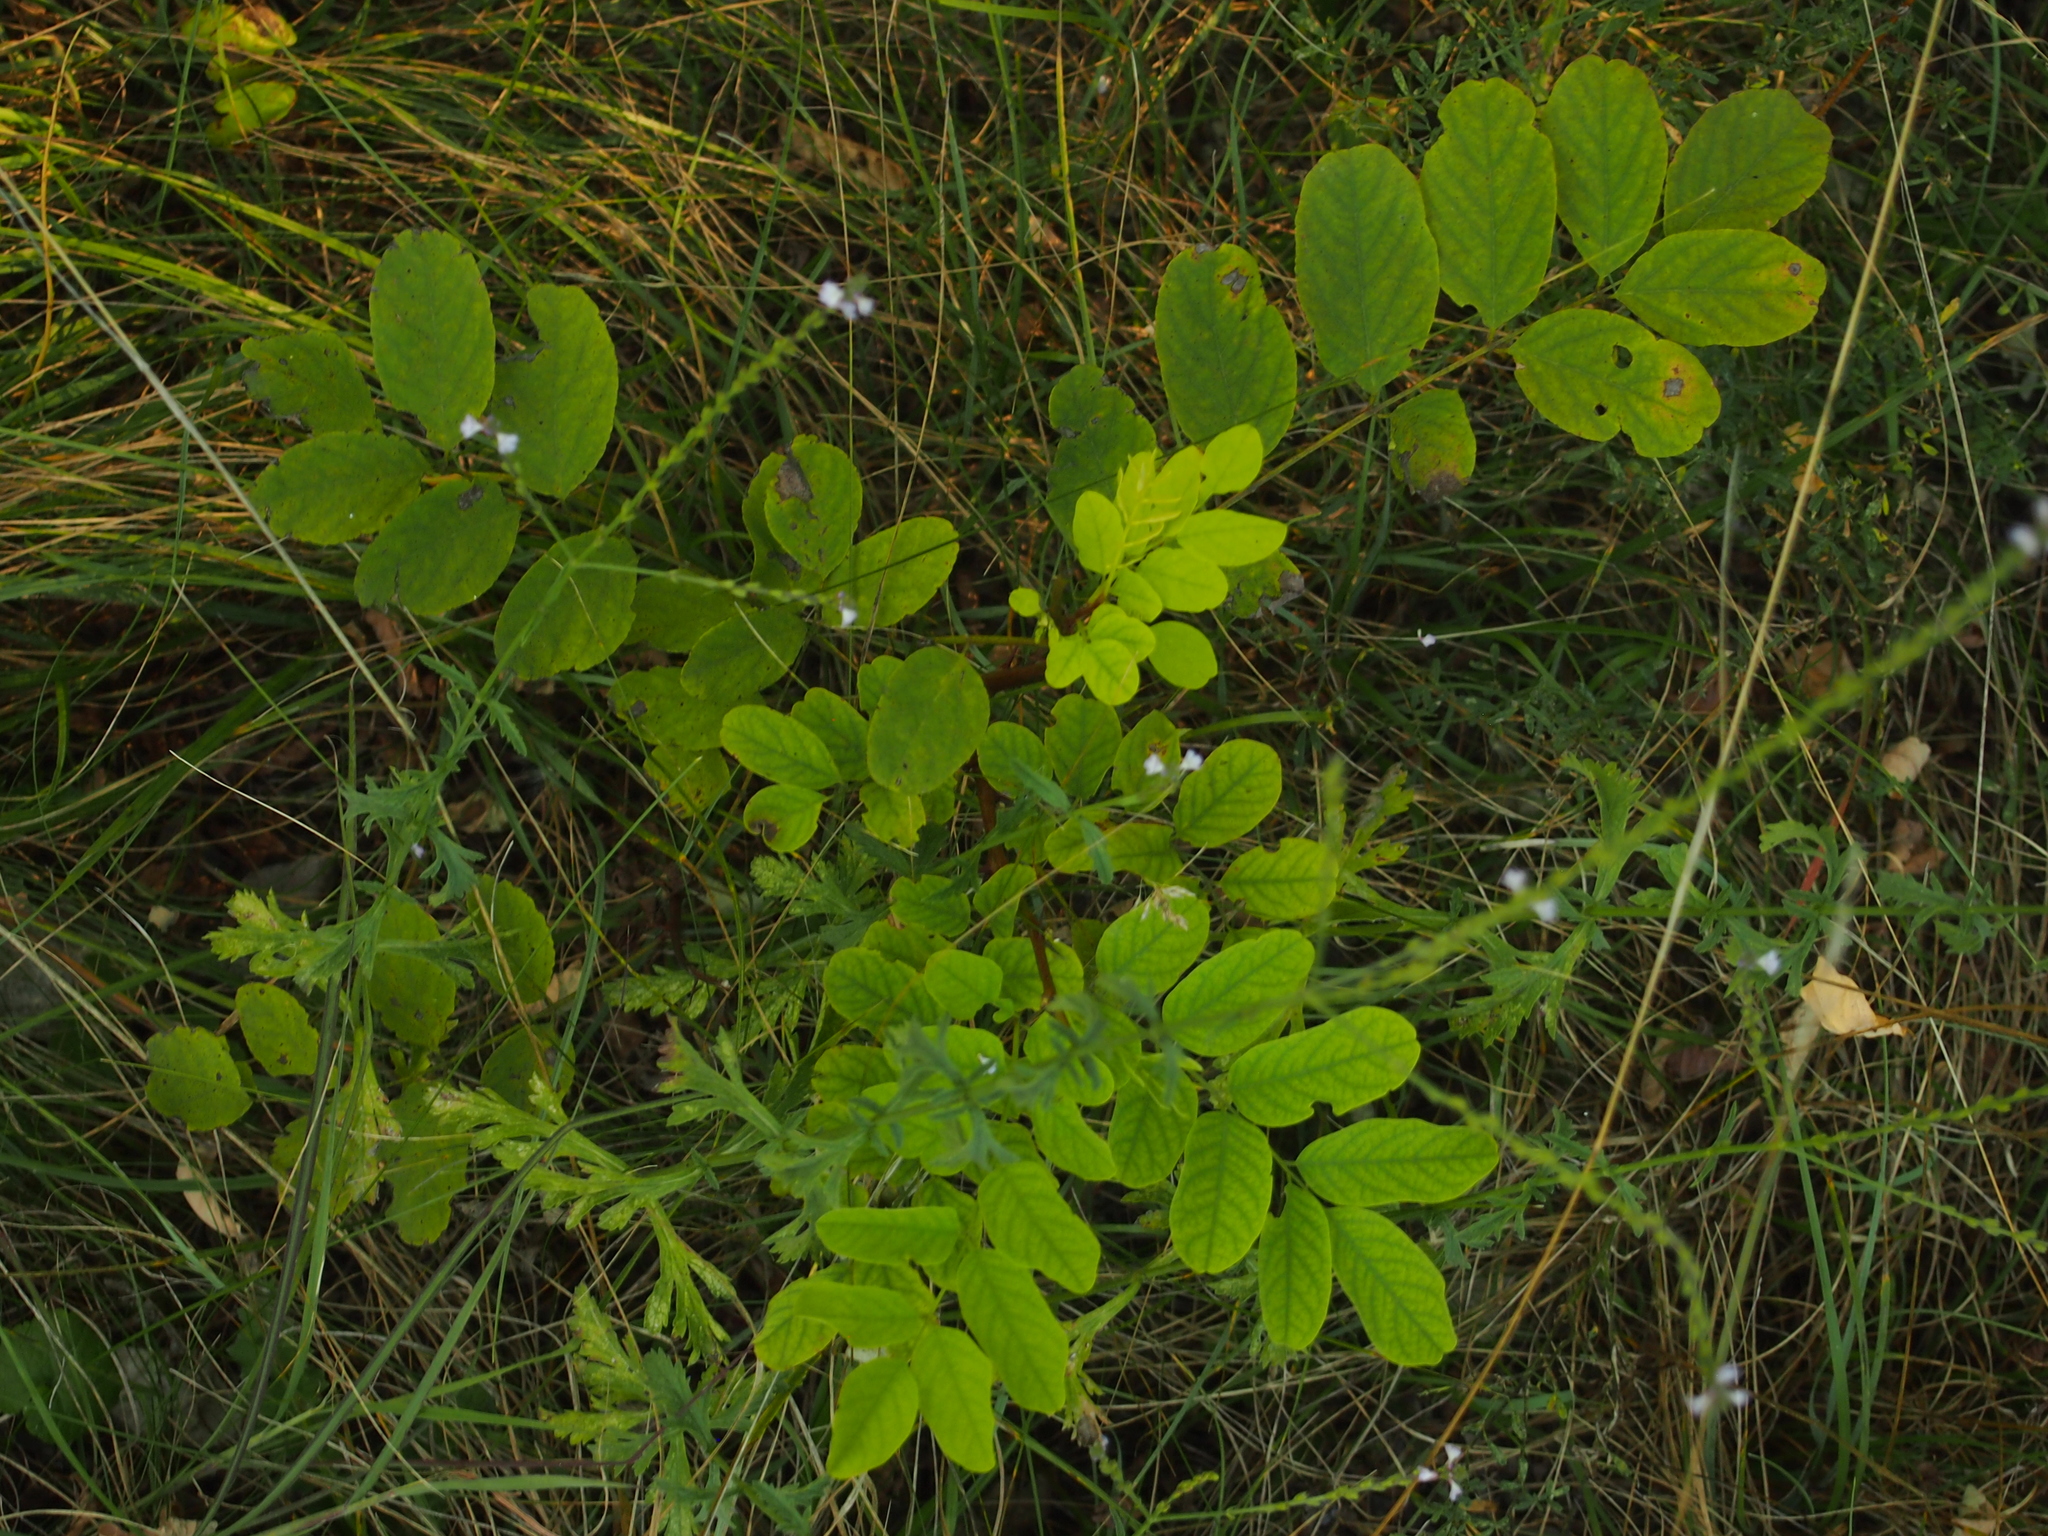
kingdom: Plantae
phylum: Tracheophyta
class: Magnoliopsida
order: Fabales
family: Fabaceae
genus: Robinia
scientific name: Robinia pseudoacacia
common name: Black locust
